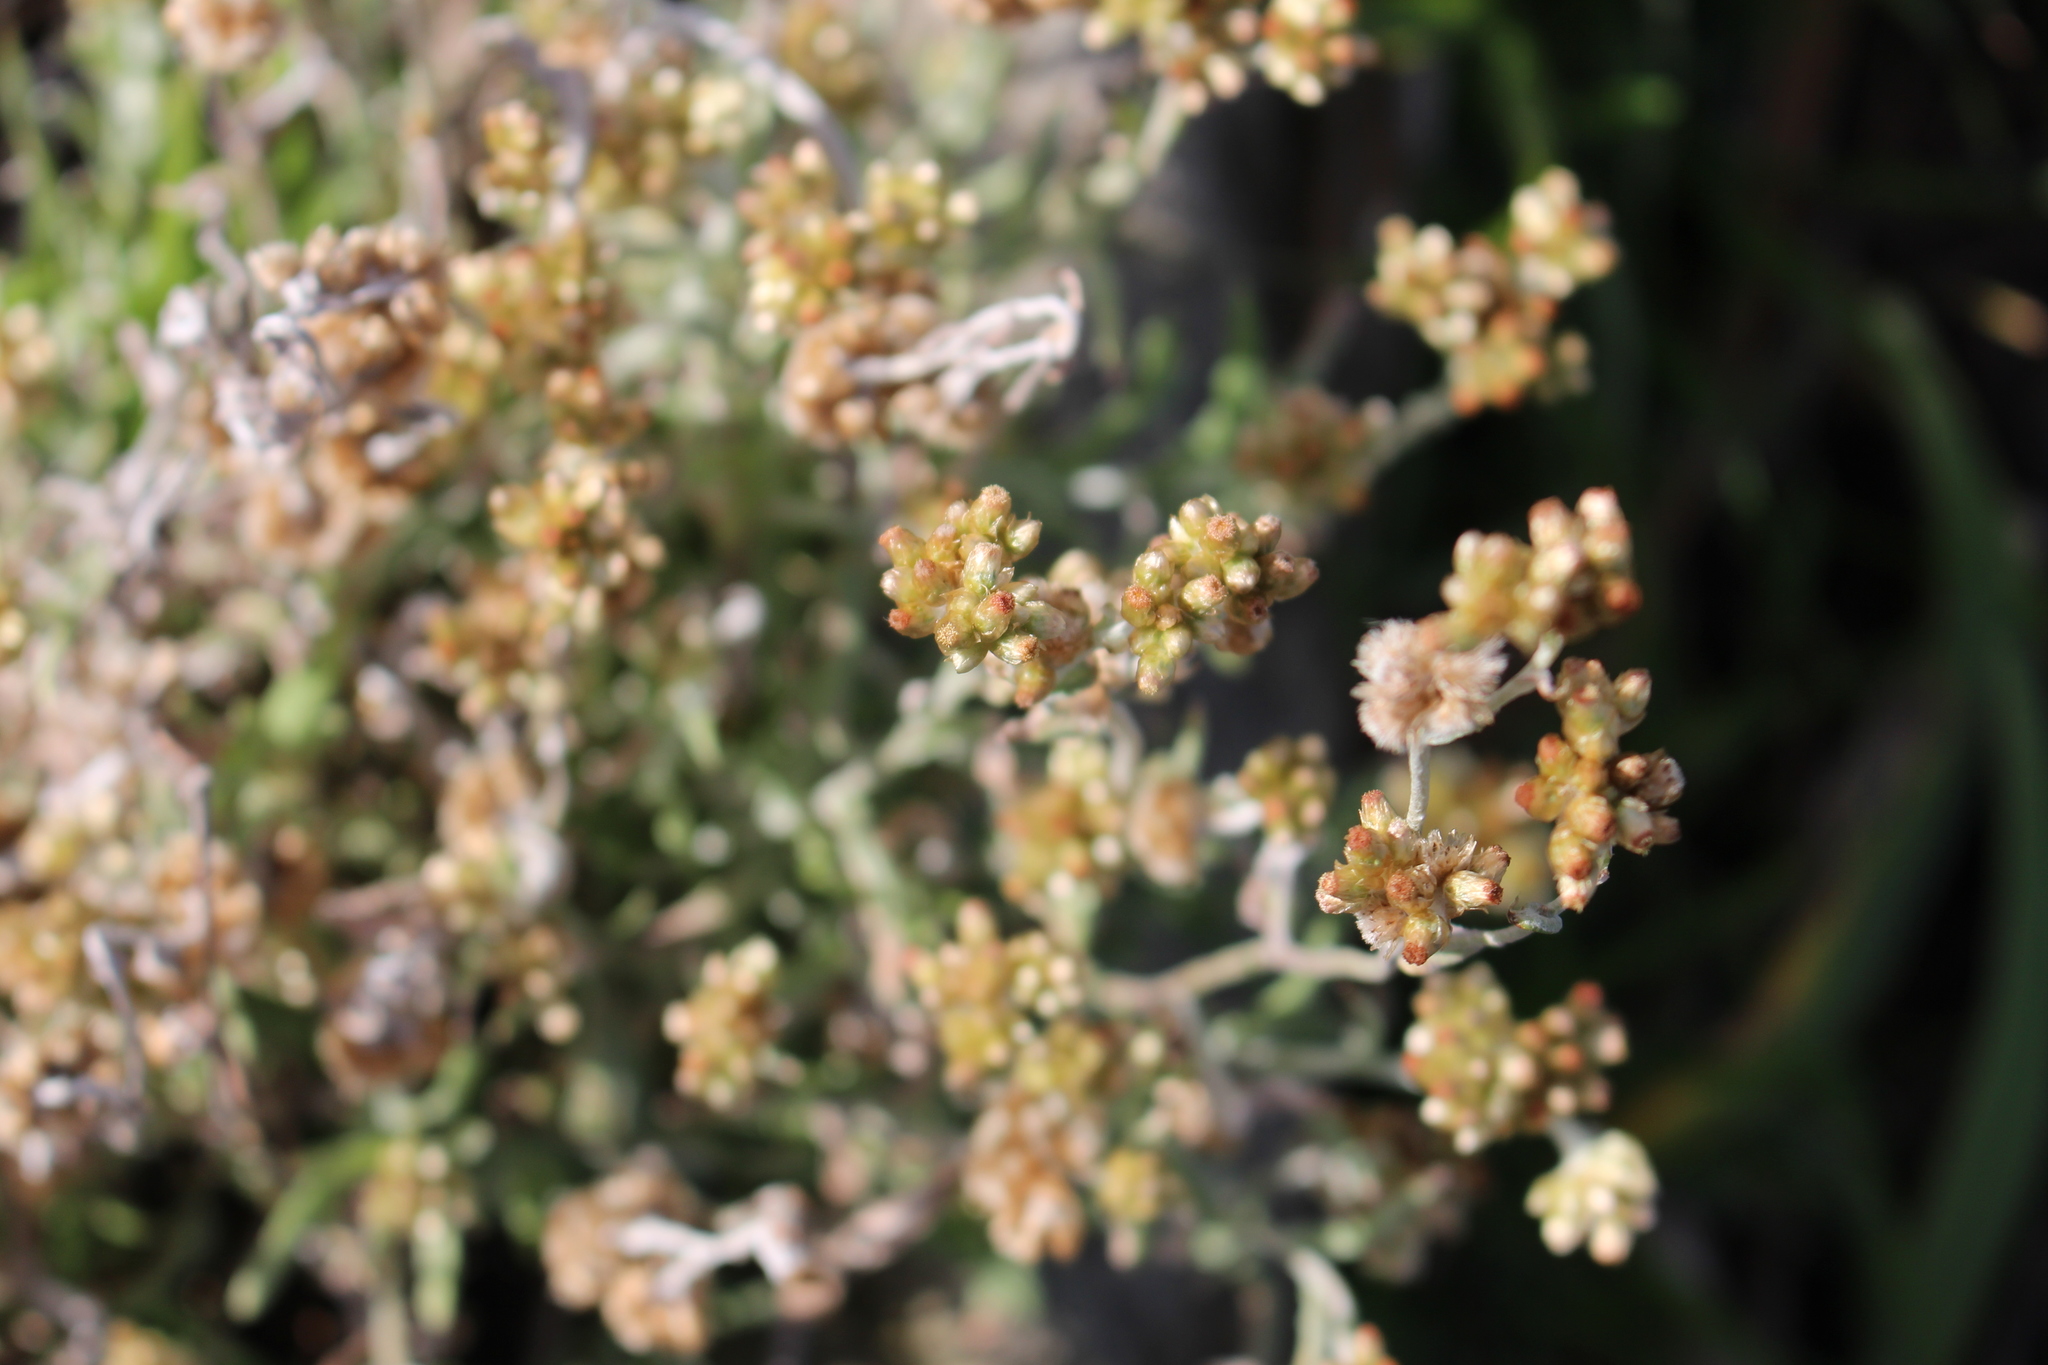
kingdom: Plantae
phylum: Tracheophyta
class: Magnoliopsida
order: Asterales
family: Asteraceae
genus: Helichrysum
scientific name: Helichrysum luteoalbum
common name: Daisy
